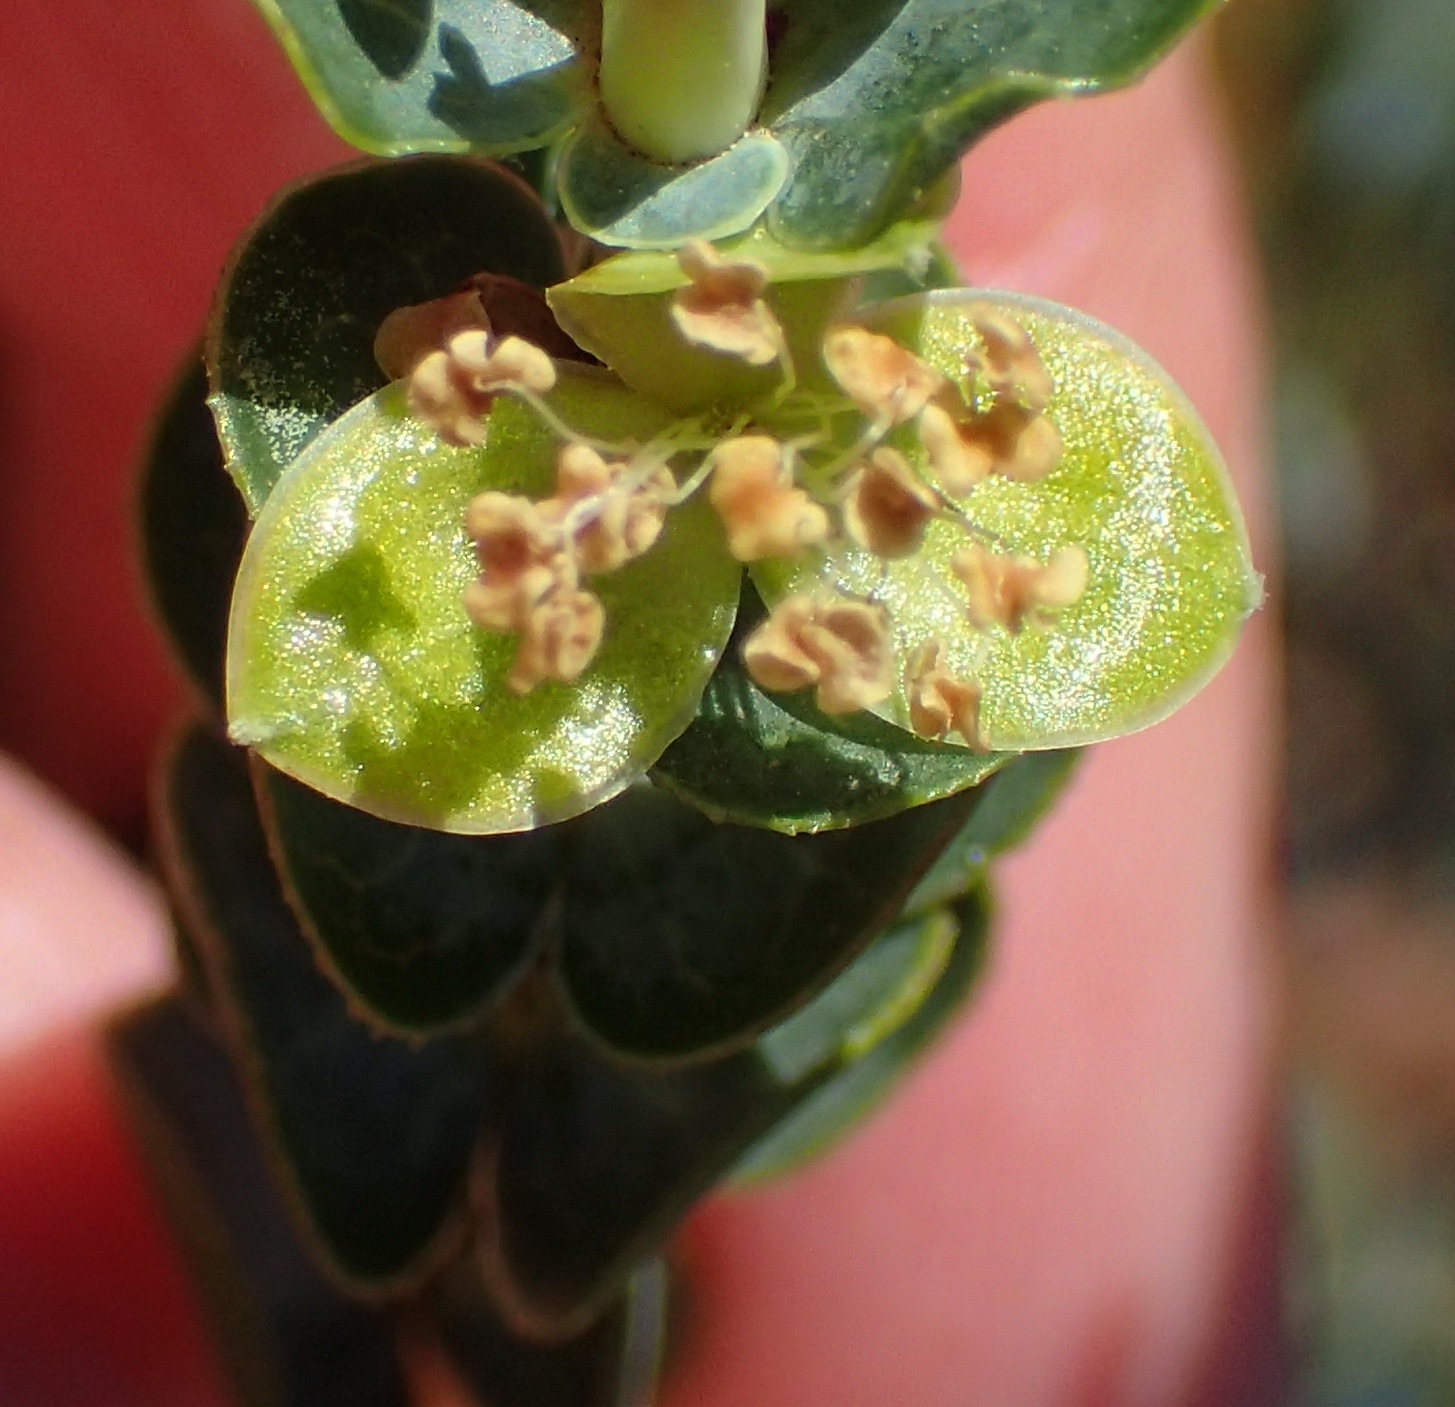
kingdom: Plantae
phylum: Tracheophyta
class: Magnoliopsida
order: Rosales
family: Rosaceae
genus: Cliffortia
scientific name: Cliffortia crenata
